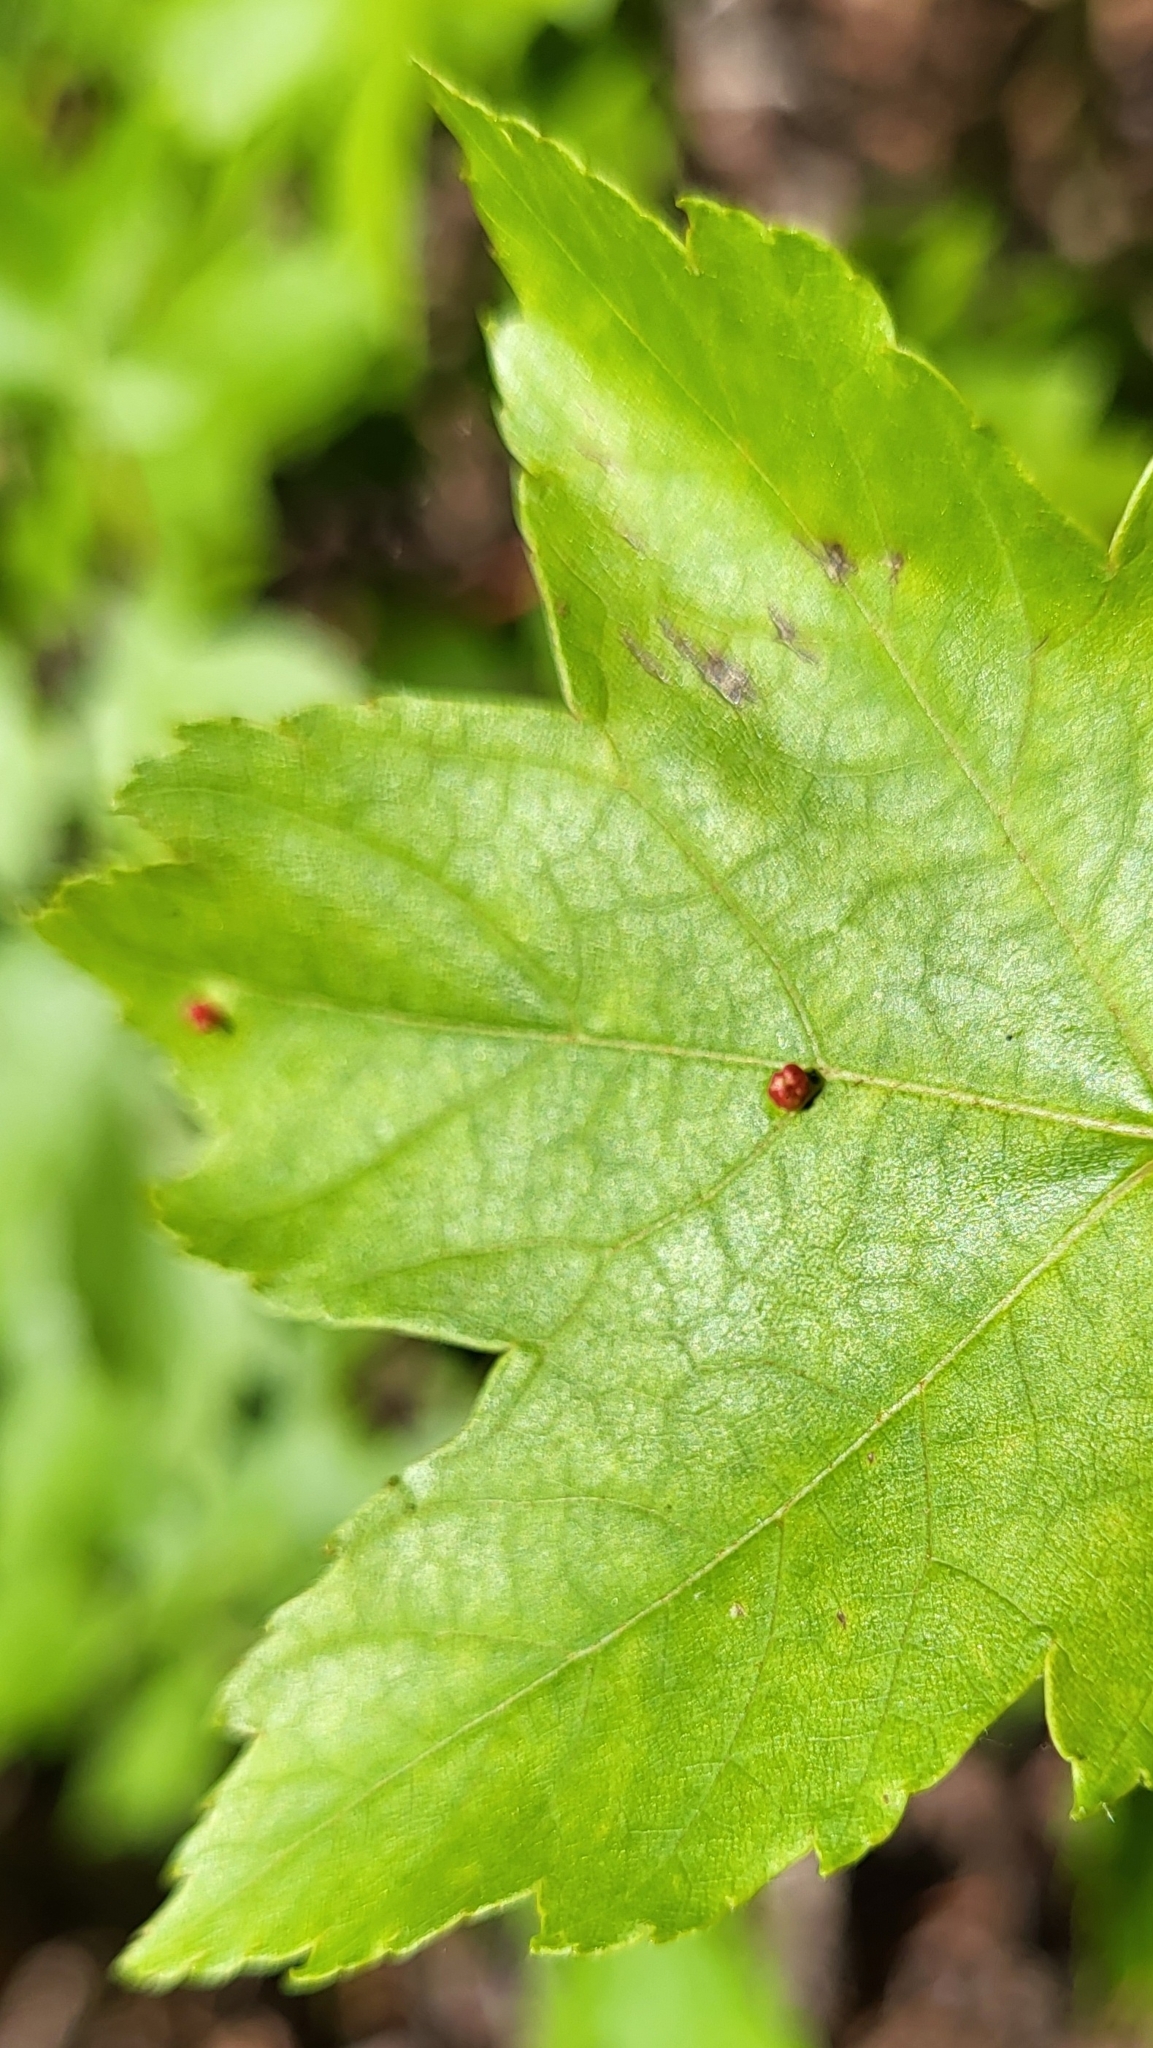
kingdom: Animalia
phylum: Arthropoda
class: Arachnida
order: Trombidiformes
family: Eriophyidae
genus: Vasates
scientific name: Vasates quadripedes
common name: Maple bladder gall mite
